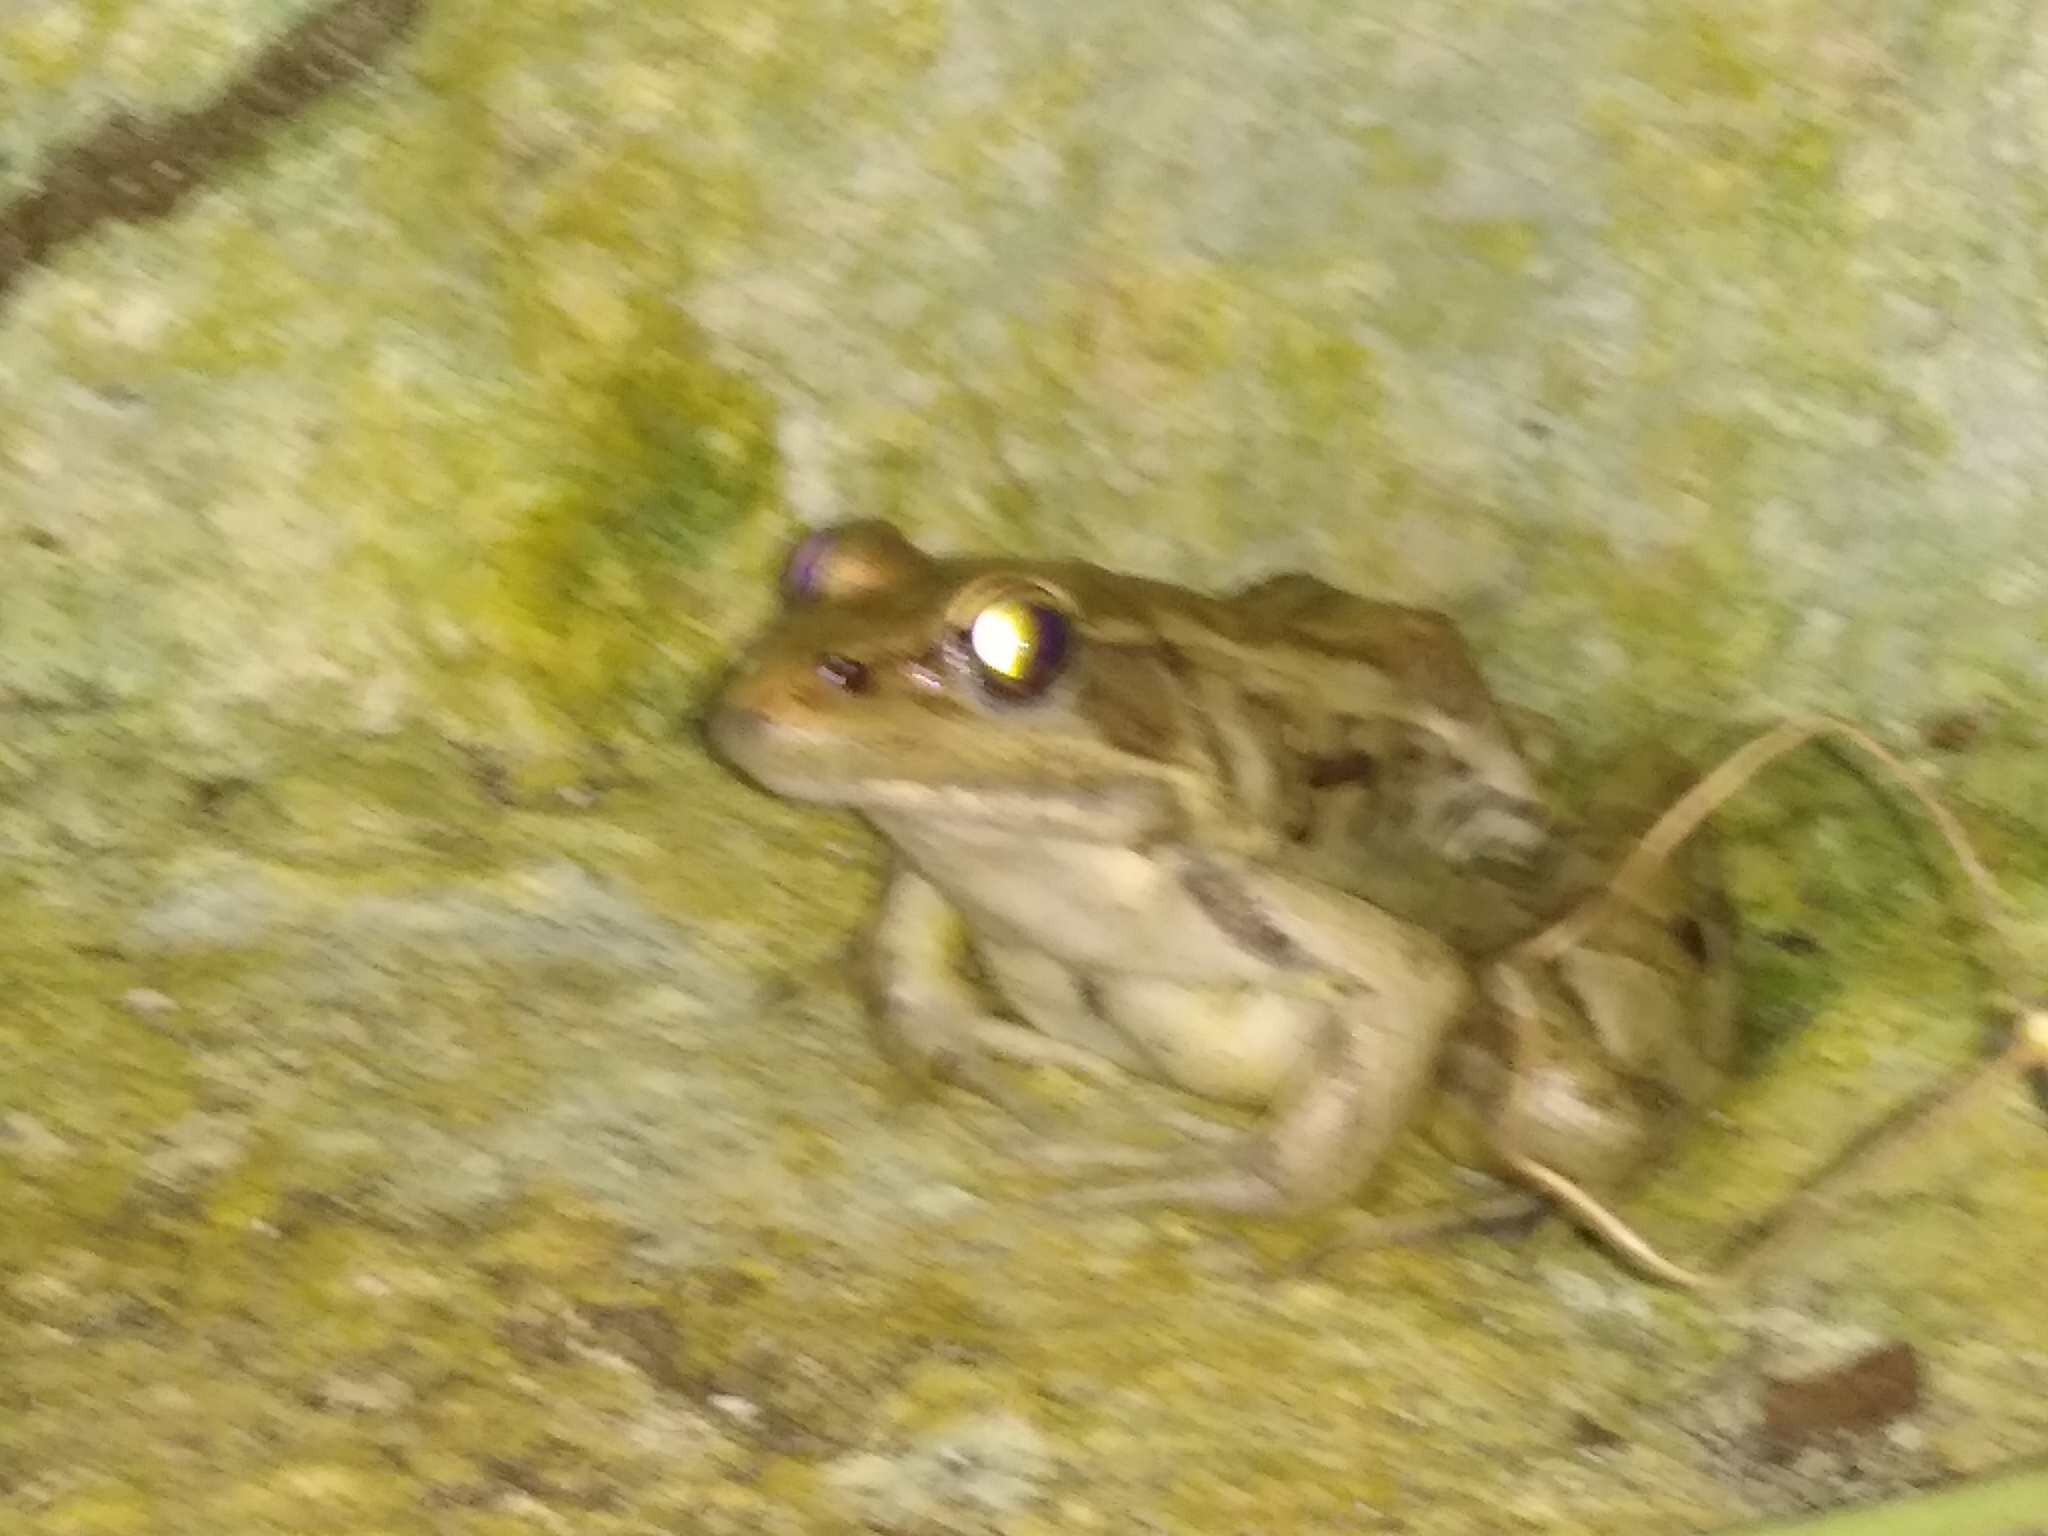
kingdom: Animalia
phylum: Chordata
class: Amphibia
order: Anura
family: Ranidae
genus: Lithobates
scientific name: Lithobates brownorum
